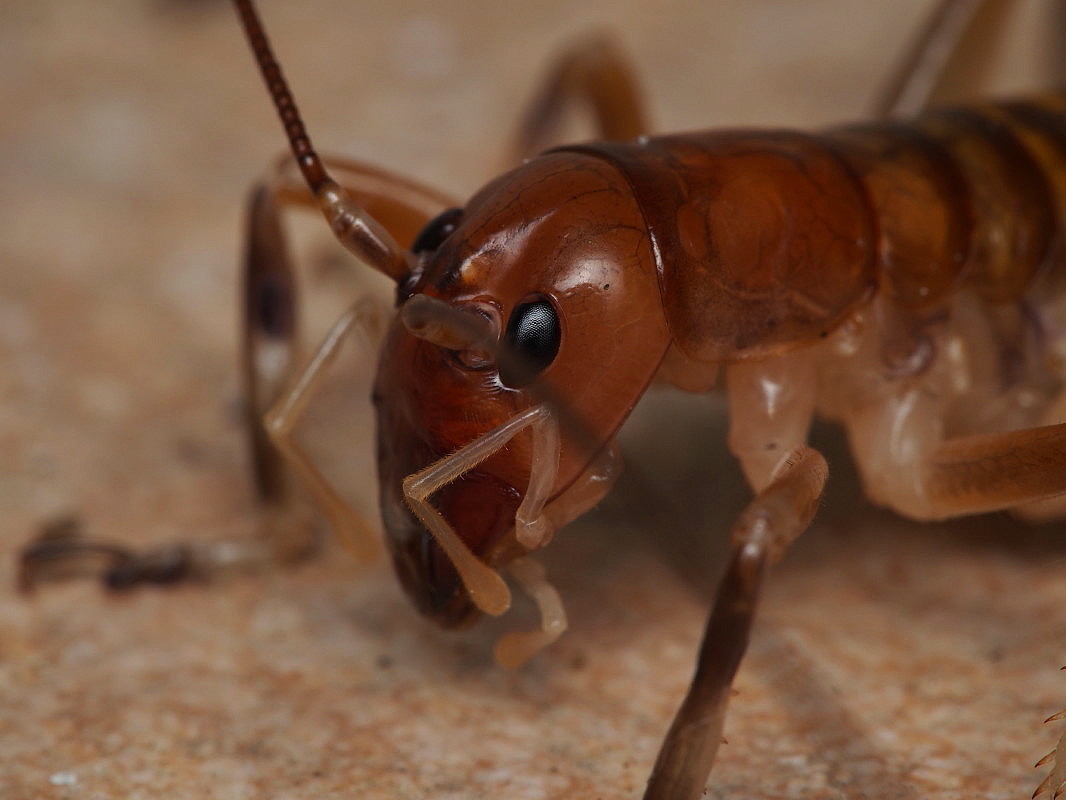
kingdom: Animalia
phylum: Arthropoda
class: Insecta
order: Orthoptera
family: Anostostomatidae
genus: Anisoura
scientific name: Anisoura nicobarica
